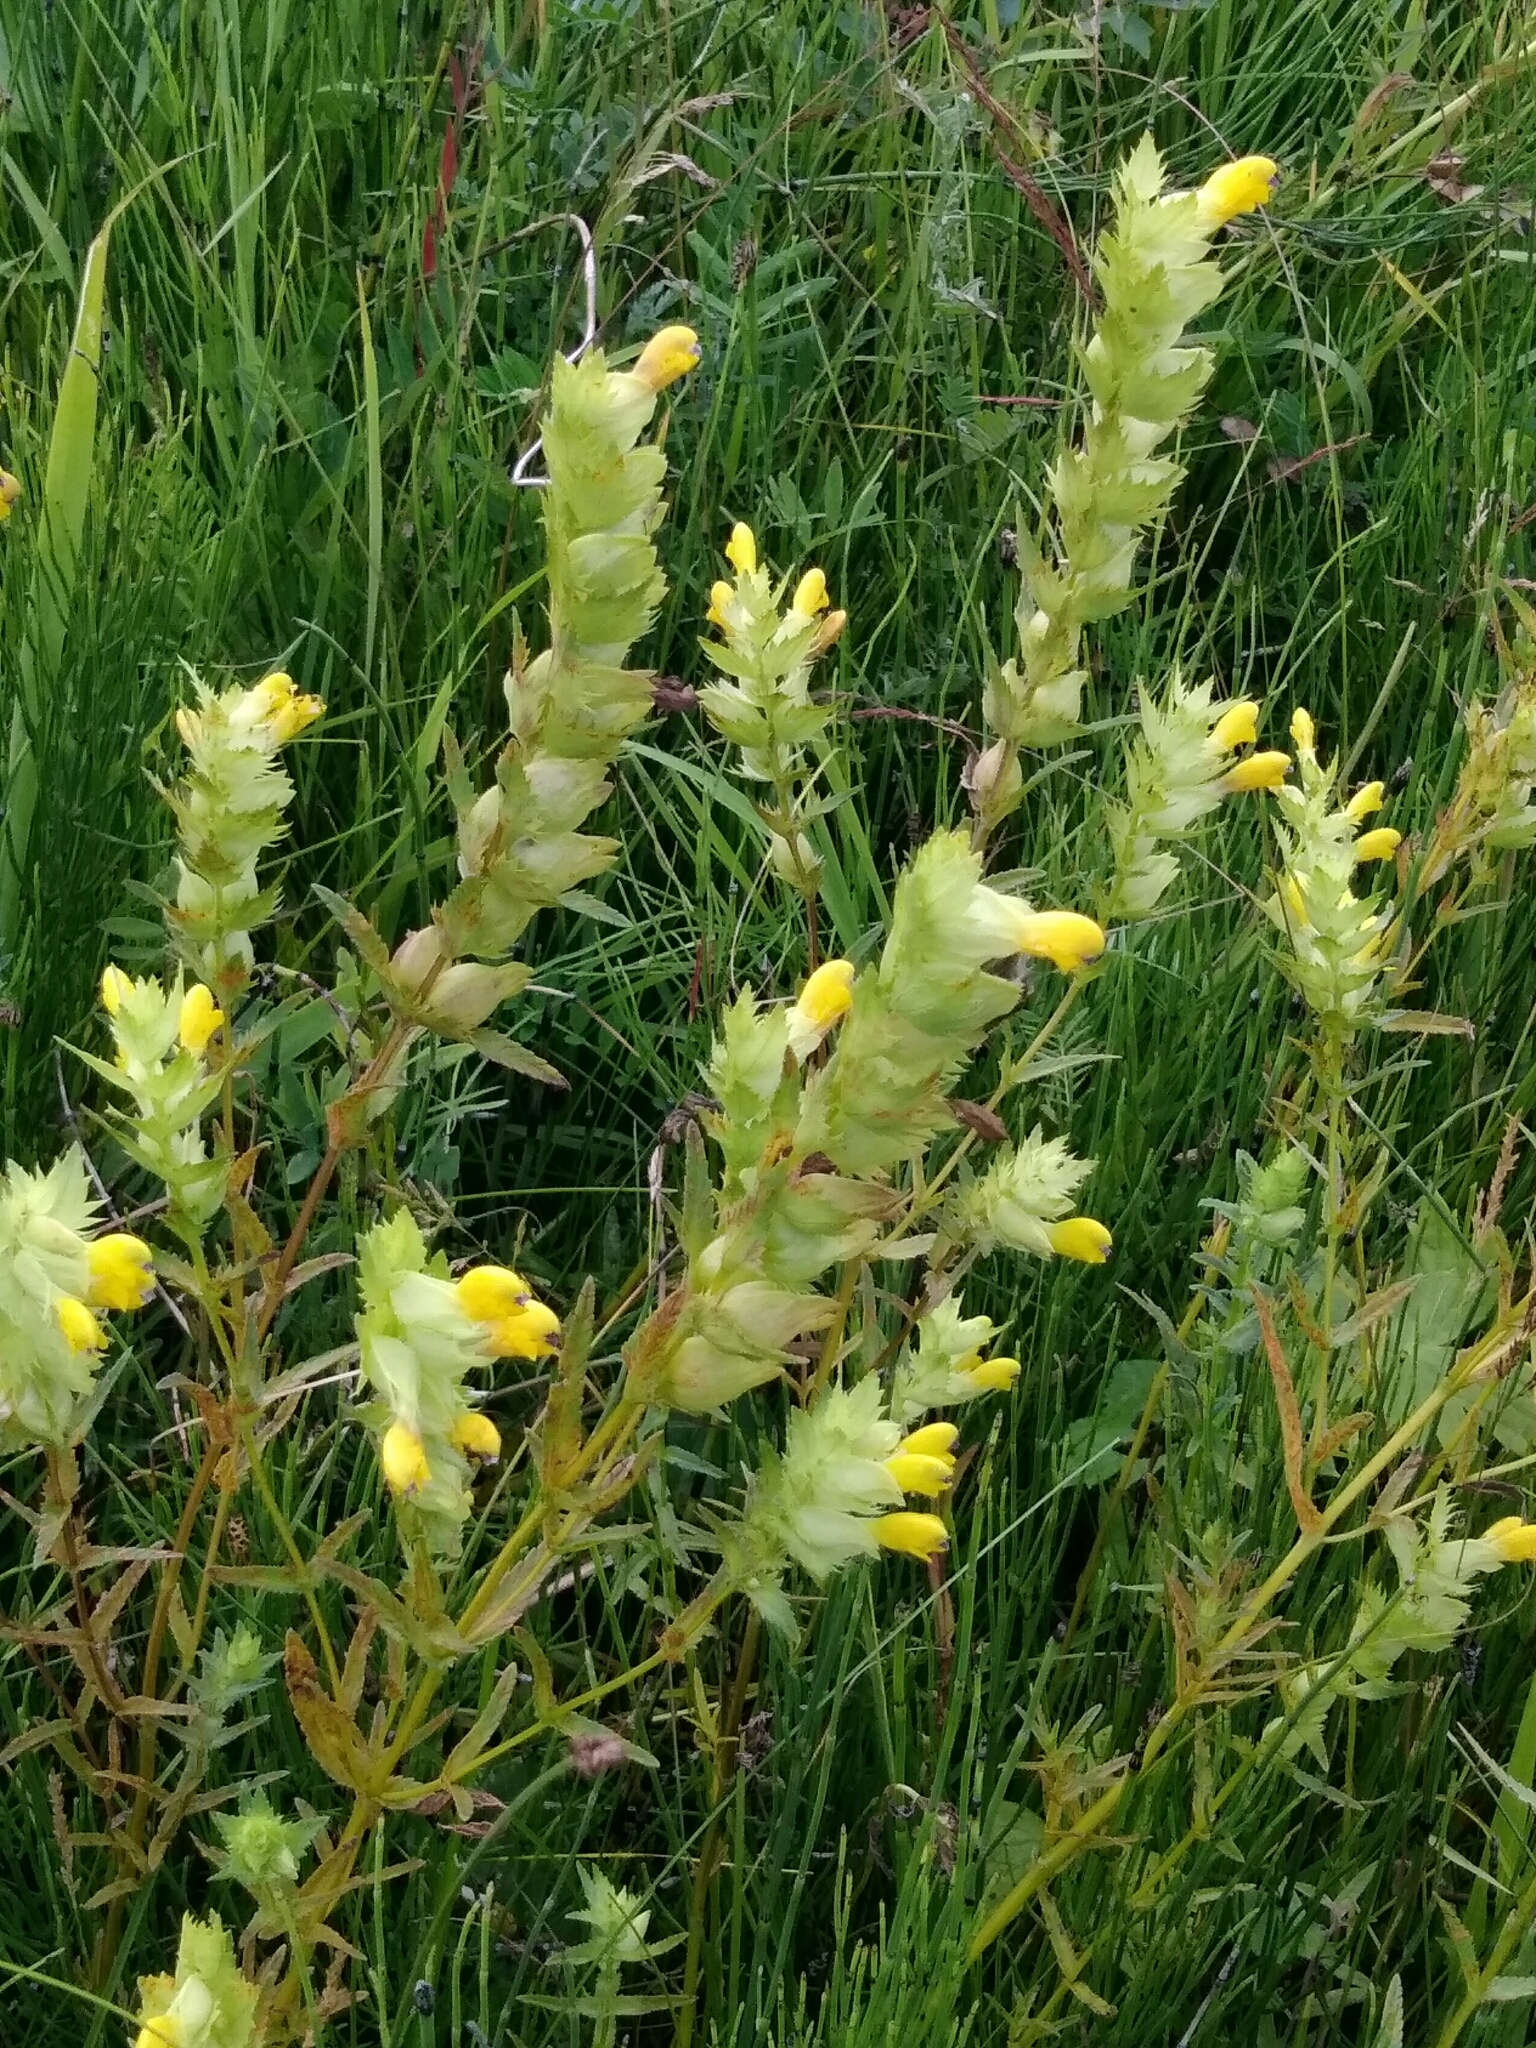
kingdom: Plantae
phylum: Tracheophyta
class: Magnoliopsida
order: Lamiales
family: Orobanchaceae
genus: Rhinanthus
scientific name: Rhinanthus serotinus
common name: Late-flowering yellow rattle
